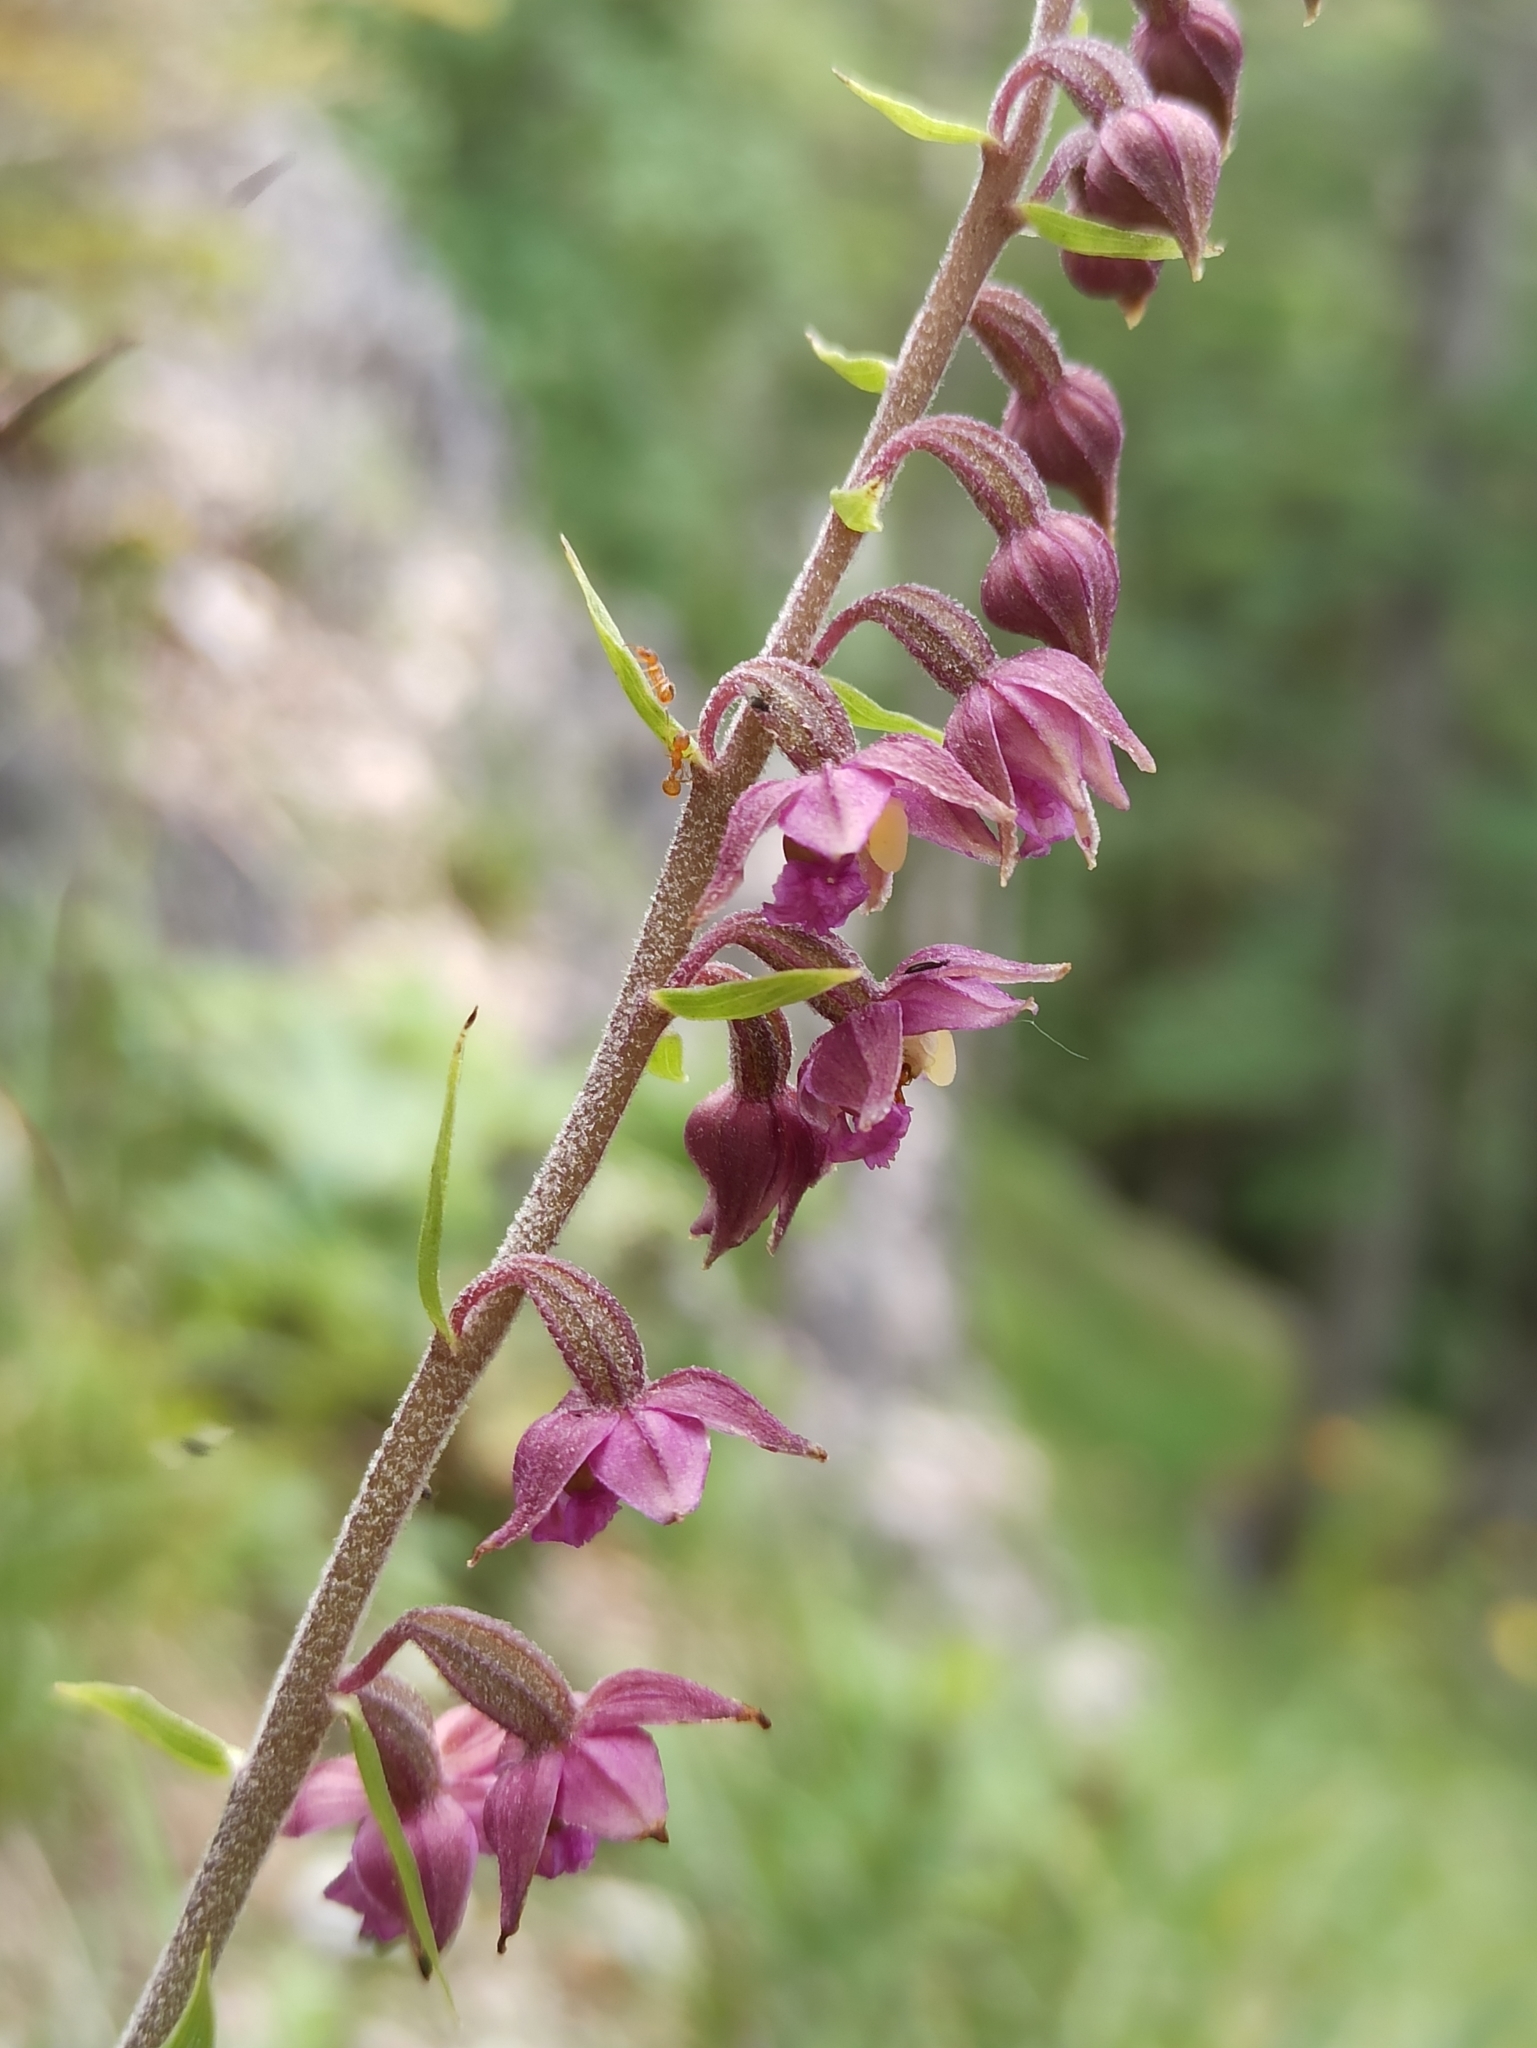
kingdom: Plantae
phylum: Tracheophyta
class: Liliopsida
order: Asparagales
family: Orchidaceae
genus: Epipactis
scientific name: Epipactis atrorubens
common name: Dark-red helleborine
